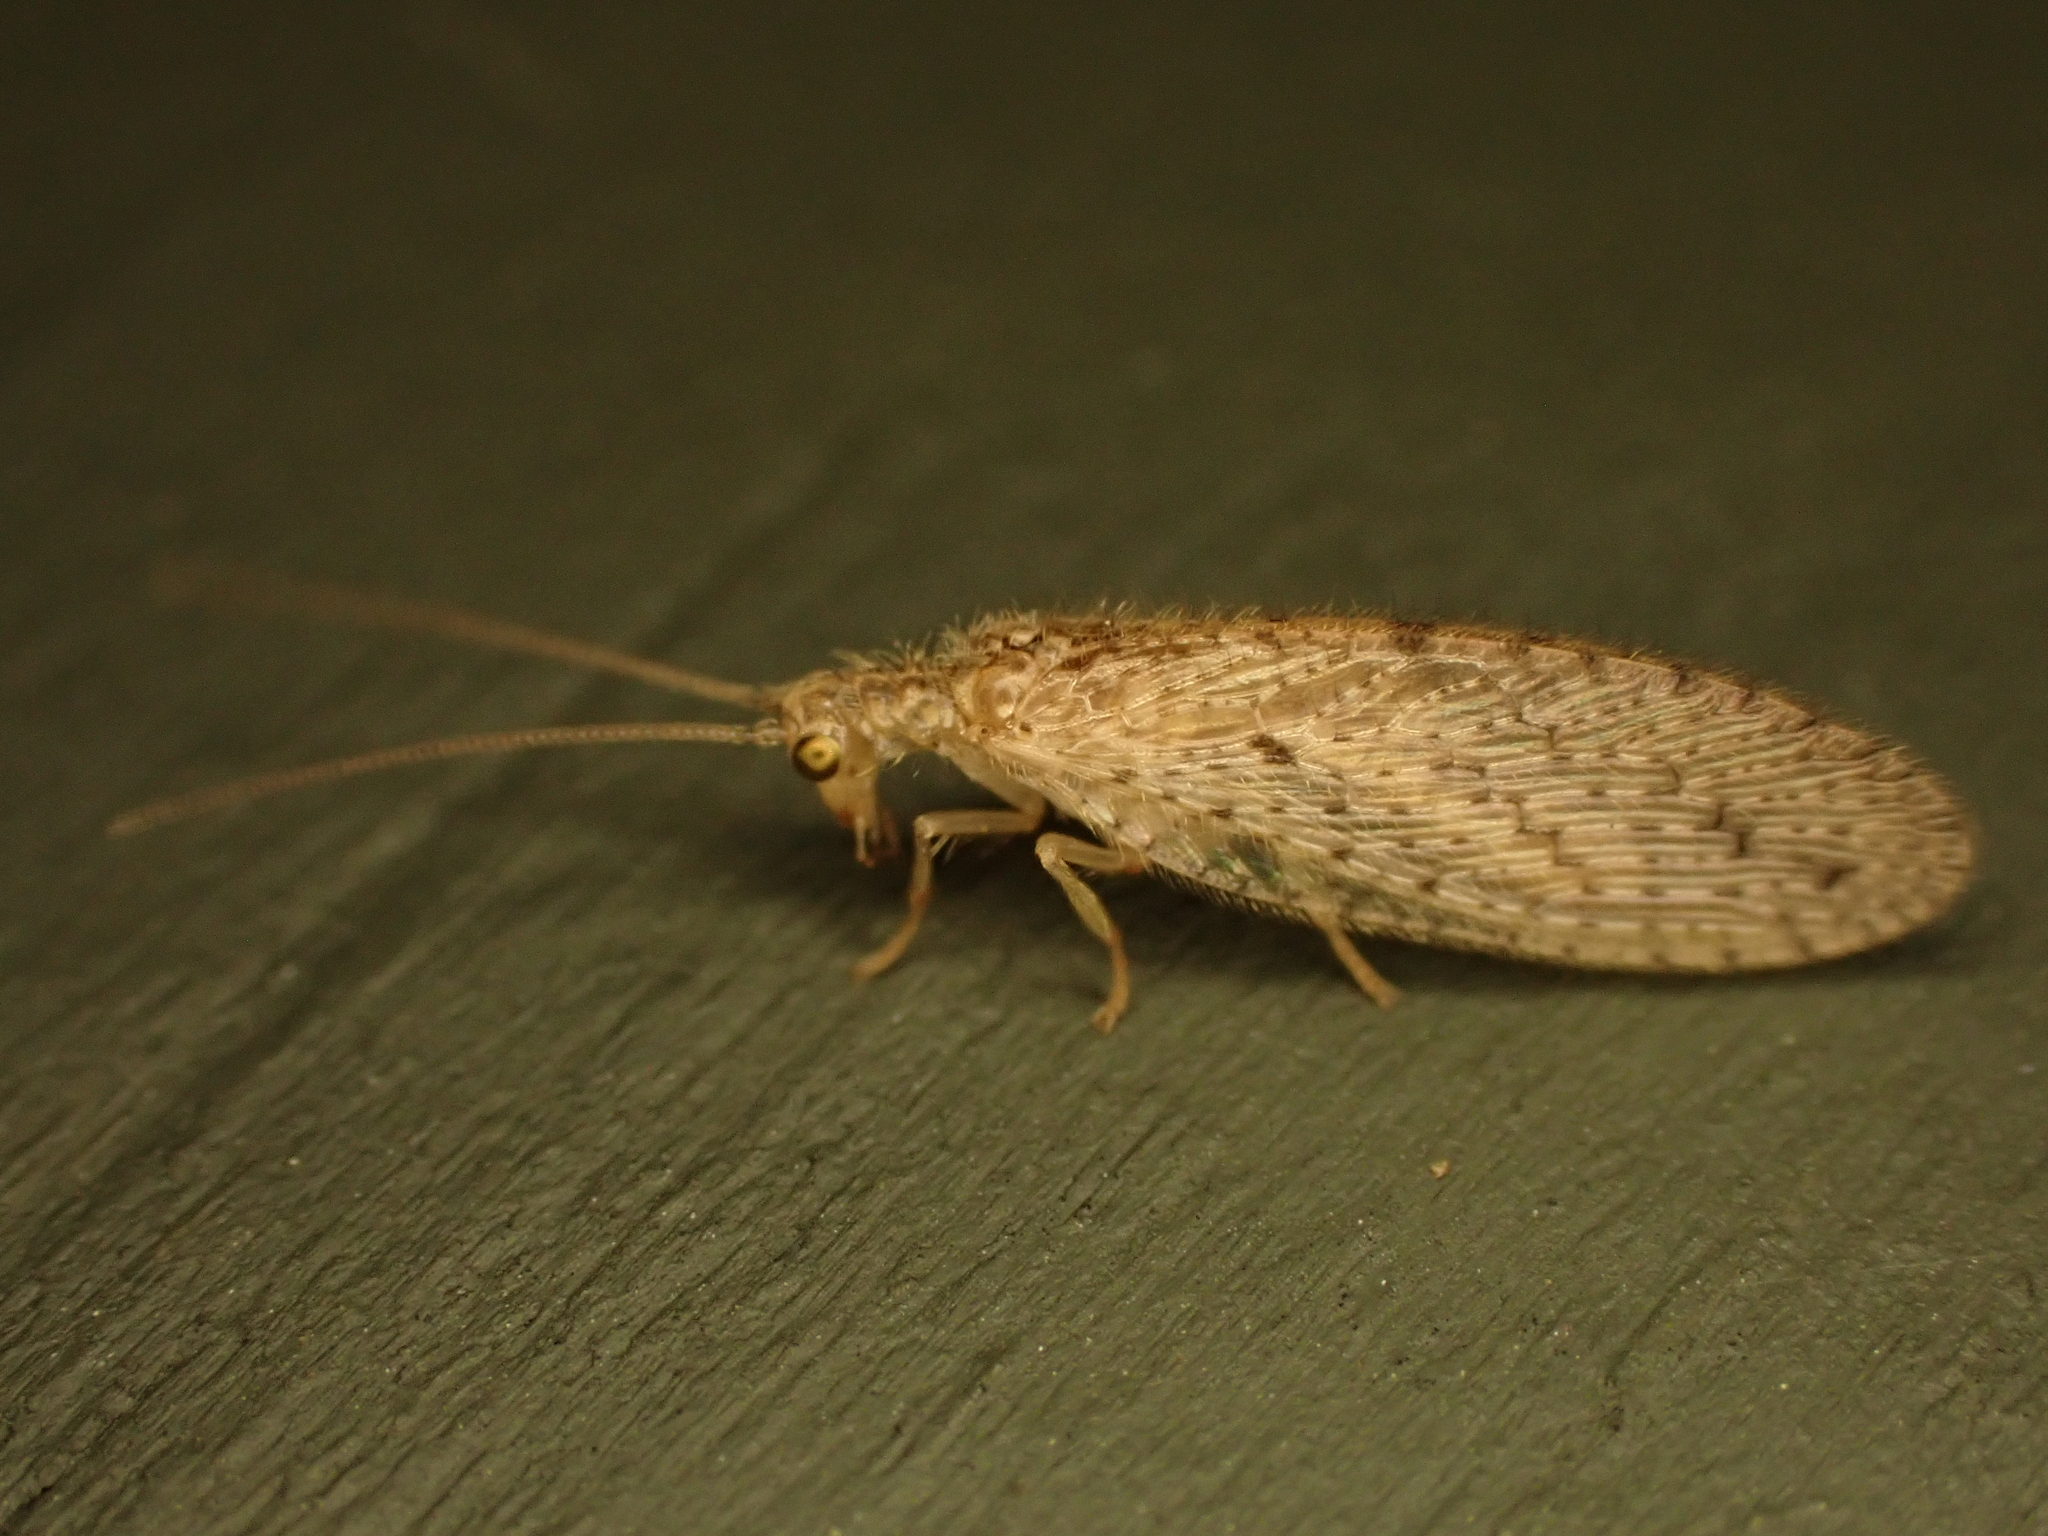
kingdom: Animalia
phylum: Arthropoda
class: Insecta
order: Neuroptera
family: Hemerobiidae
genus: Micromus
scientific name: Micromus tasmaniae
